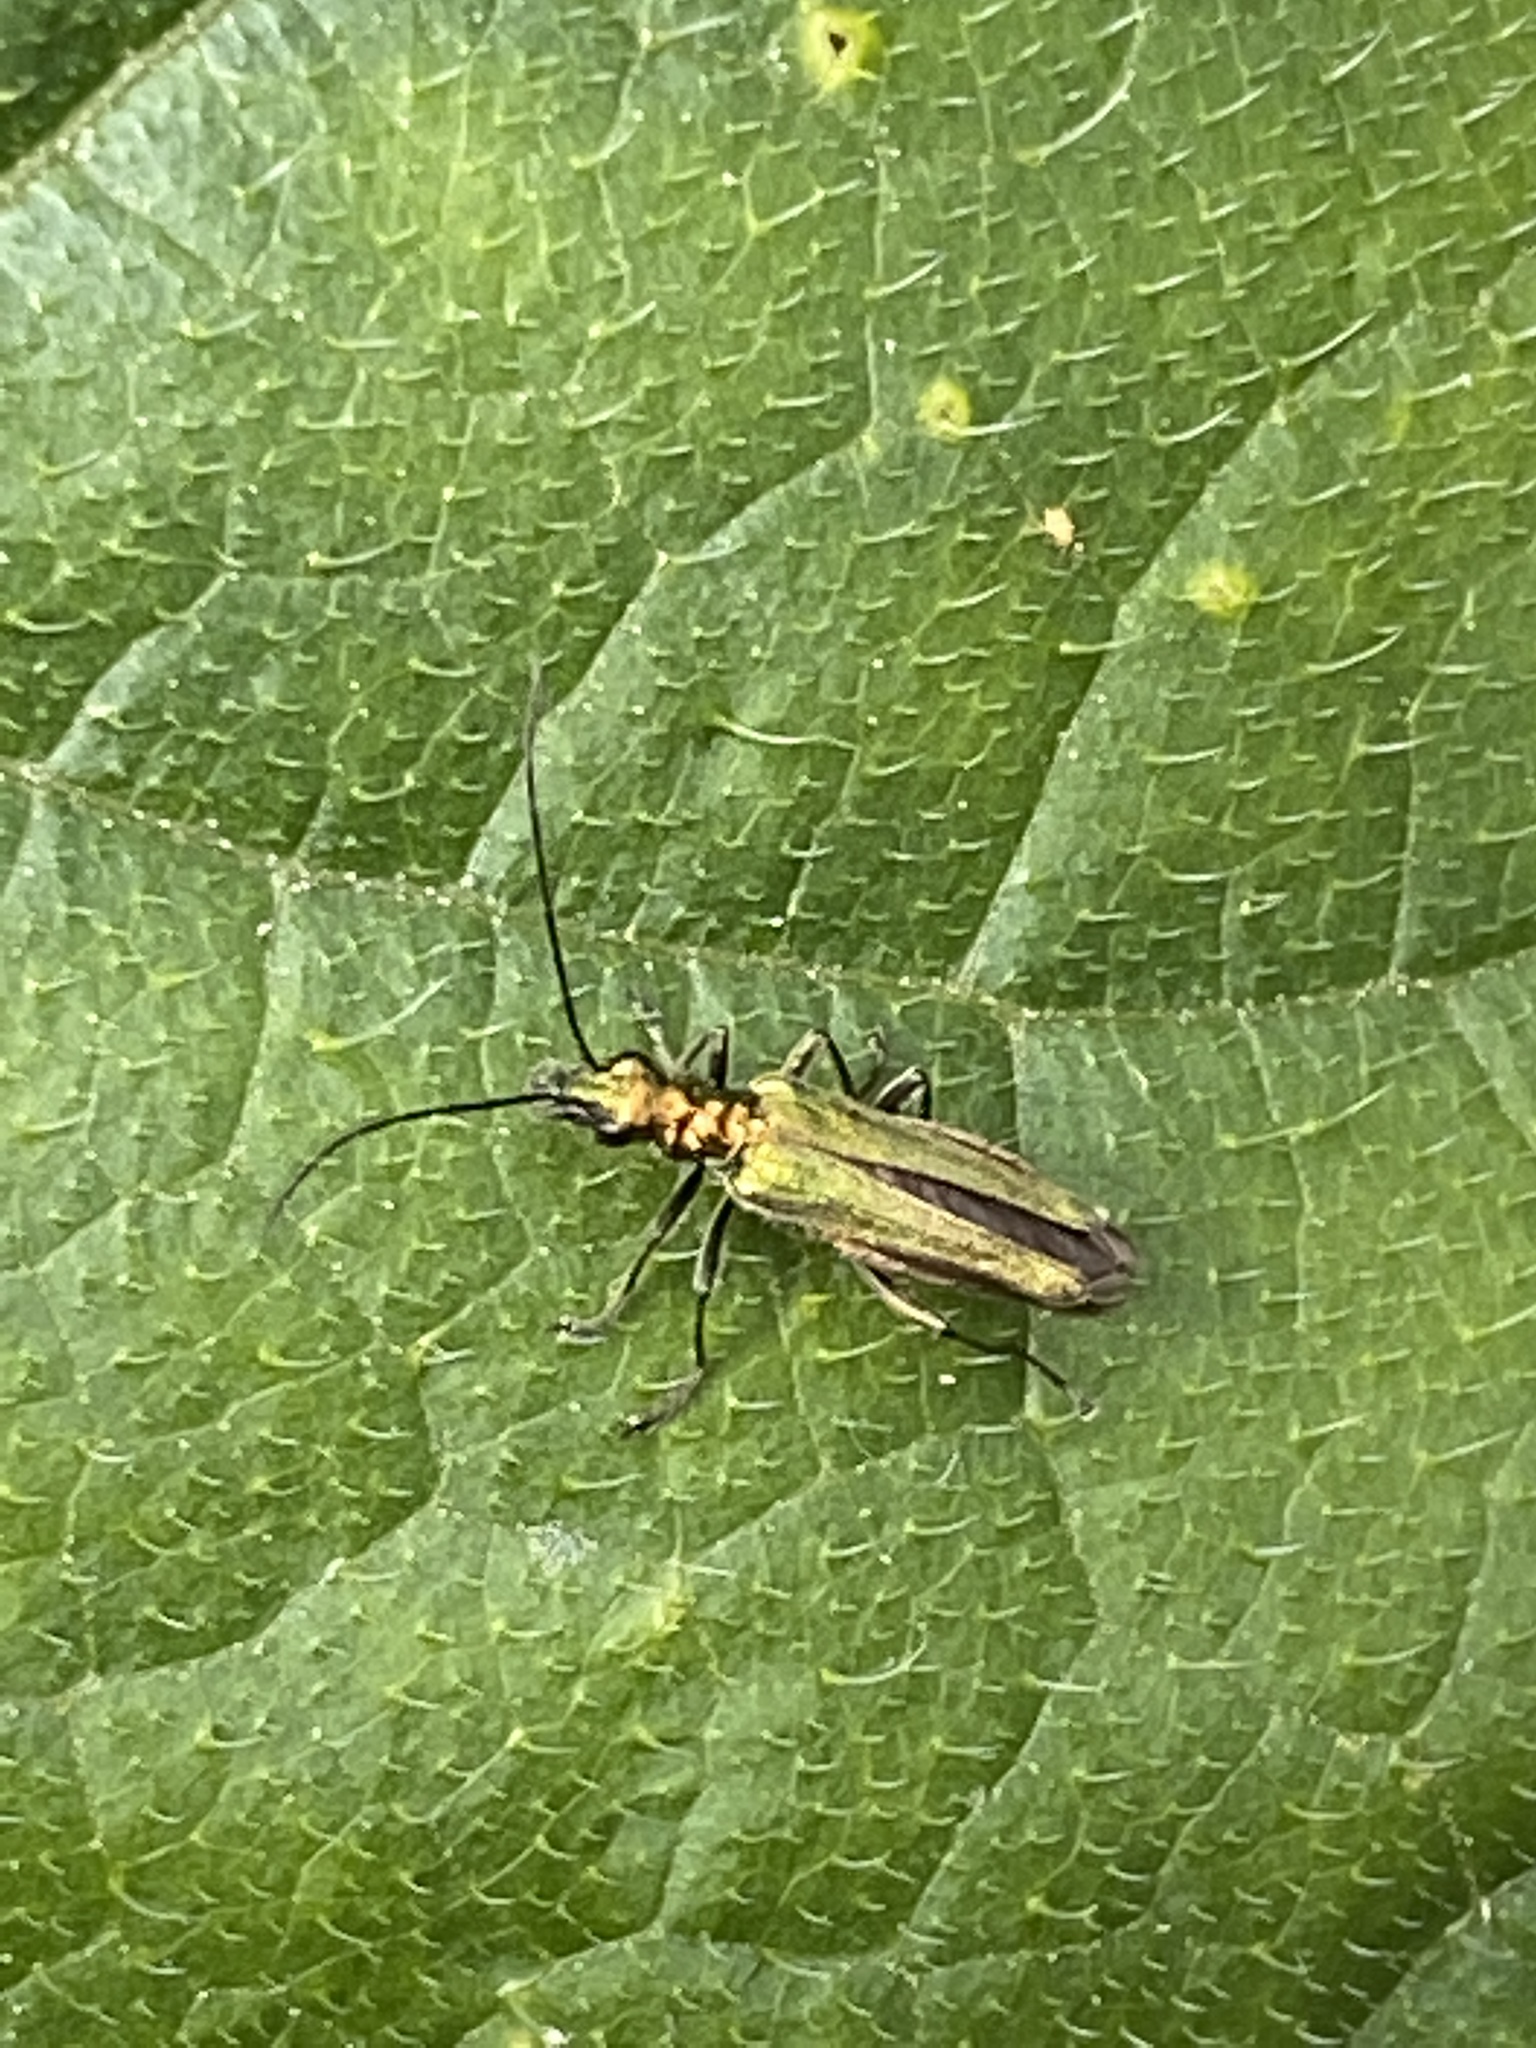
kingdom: Animalia
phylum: Arthropoda
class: Insecta
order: Coleoptera
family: Oedemeridae
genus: Oedemera
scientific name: Oedemera nobilis
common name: Swollen-thighed beetle
